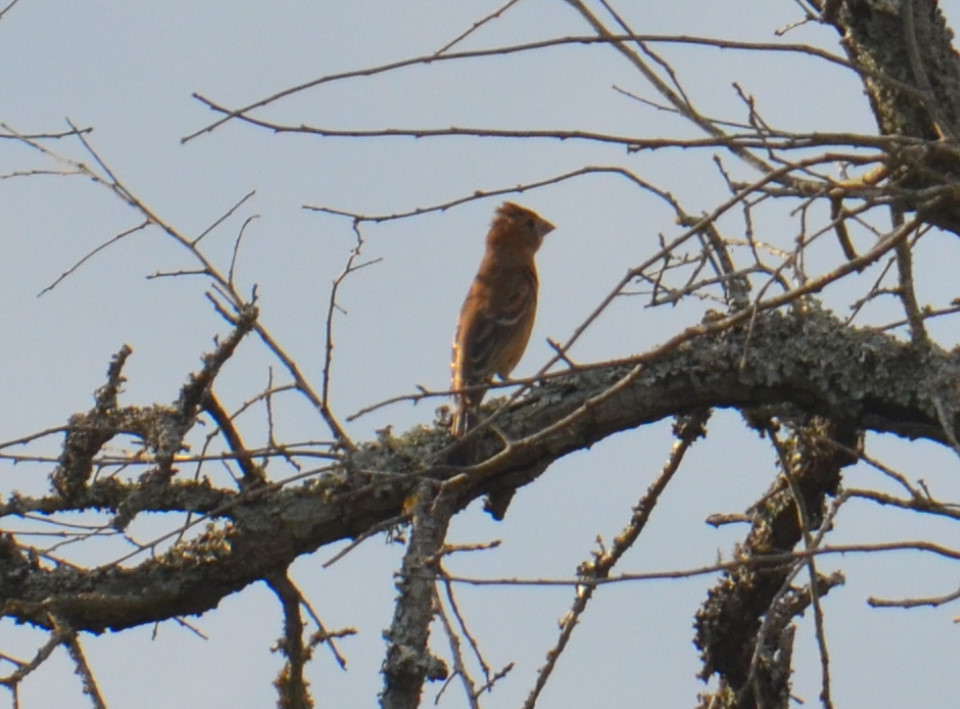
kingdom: Animalia
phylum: Chordata
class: Aves
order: Passeriformes
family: Cardinalidae
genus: Passerina
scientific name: Passerina caerulea
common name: Blue grosbeak
